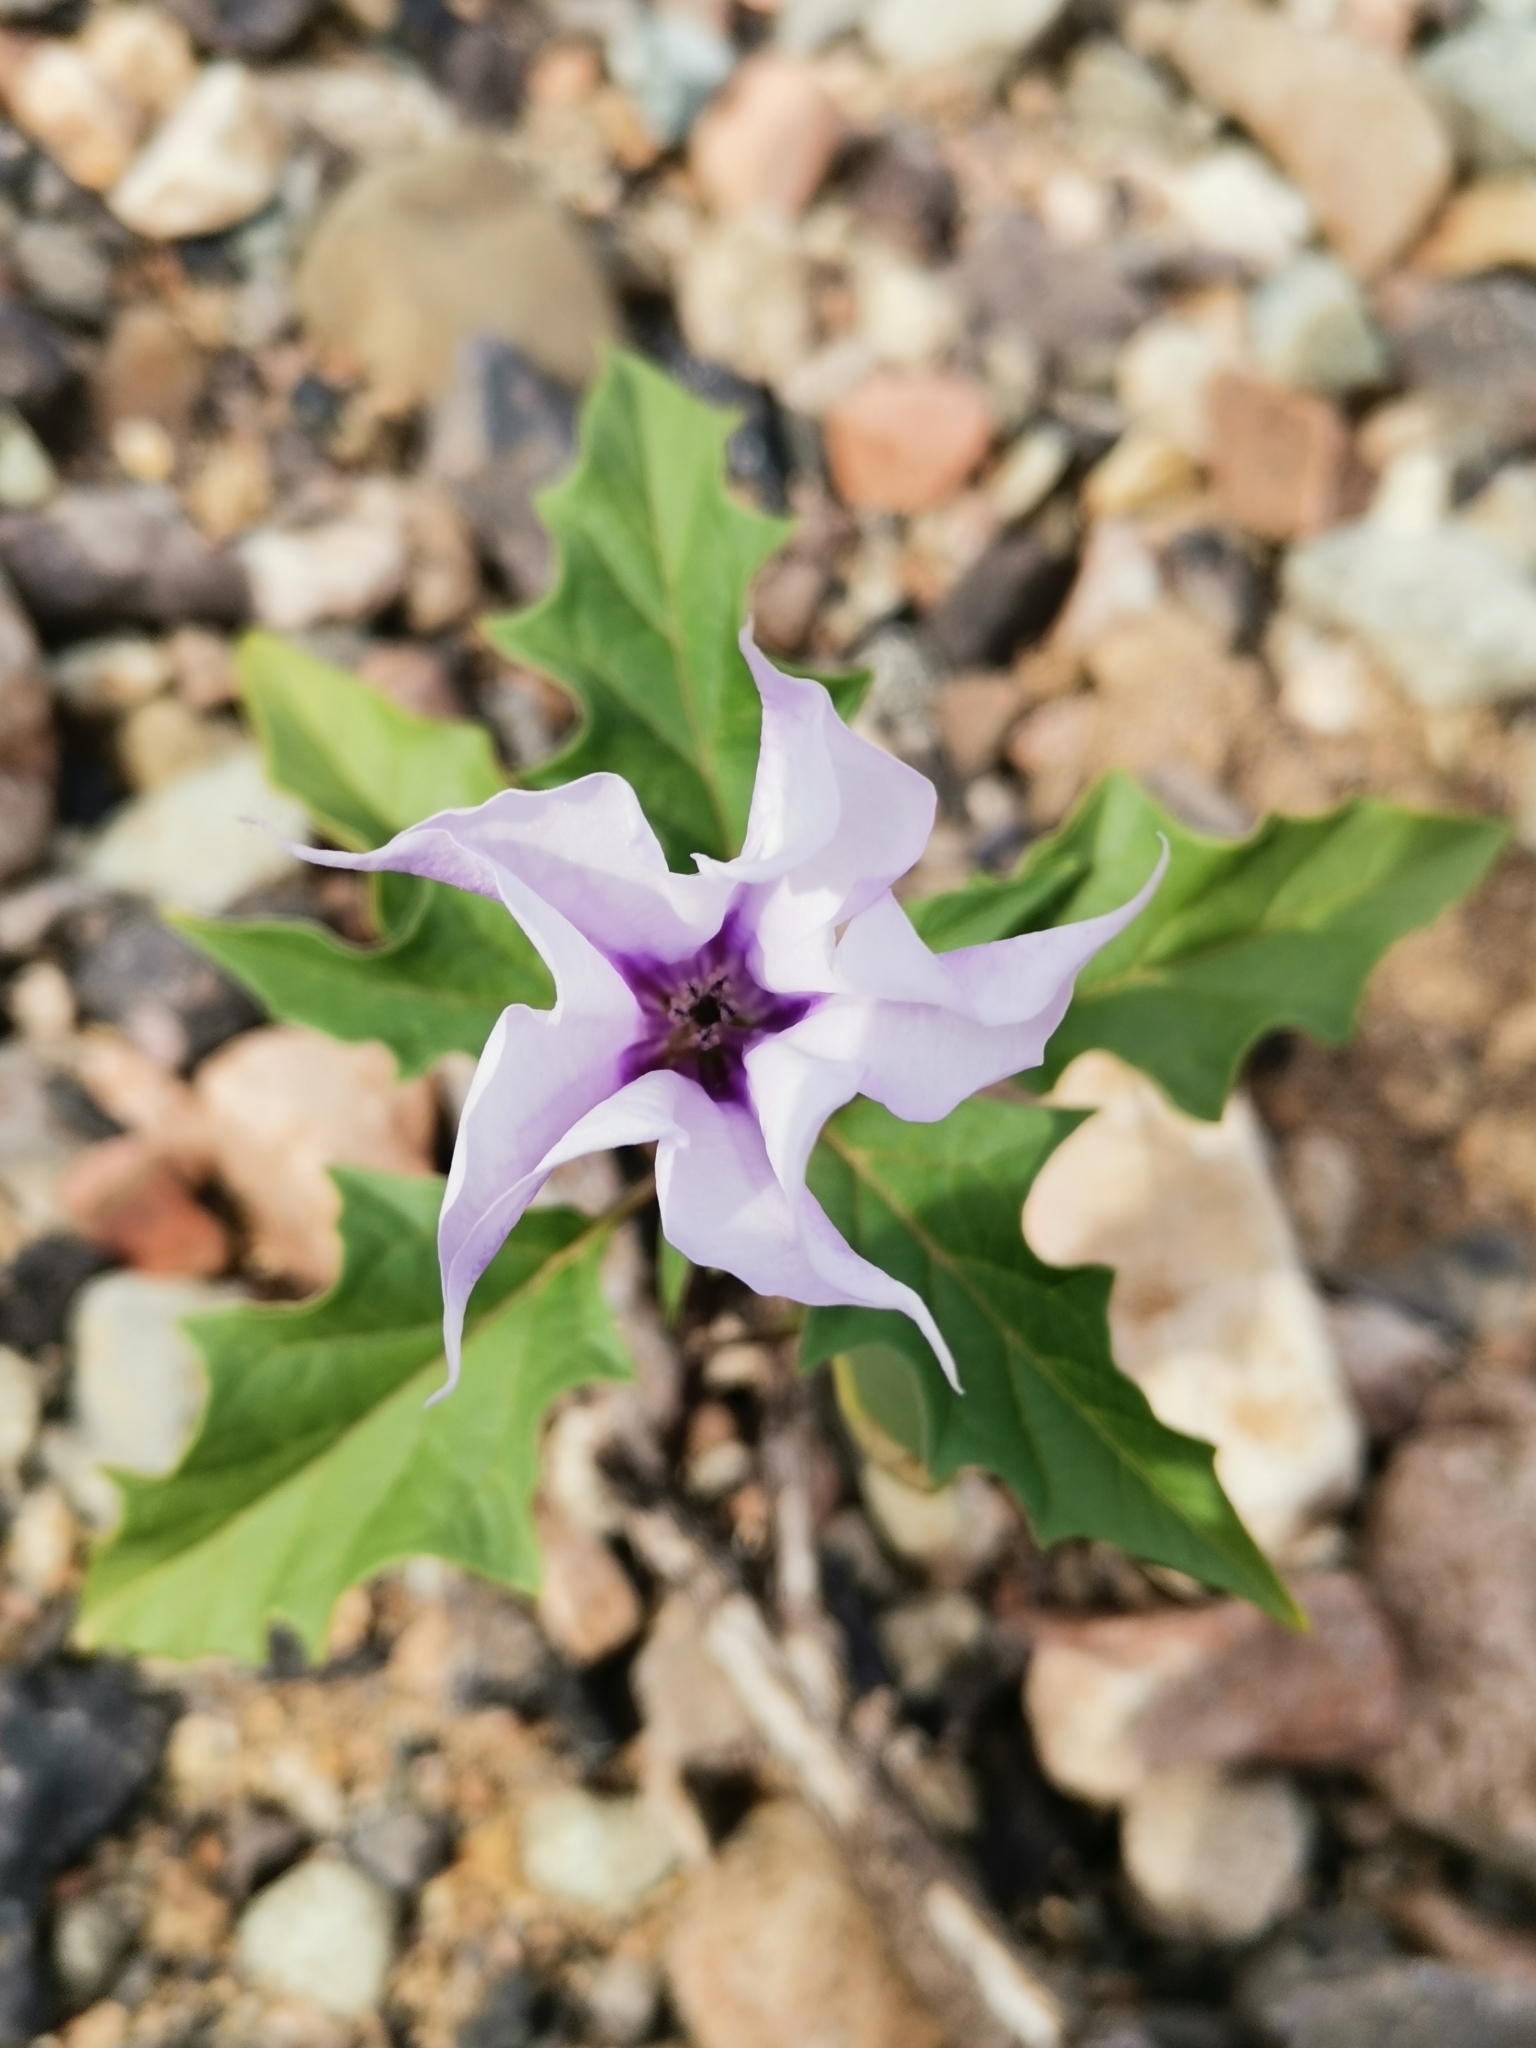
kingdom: Plantae
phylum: Tracheophyta
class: Magnoliopsida
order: Solanales
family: Solanaceae
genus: Datura
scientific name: Datura stramonium
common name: Thorn-apple
